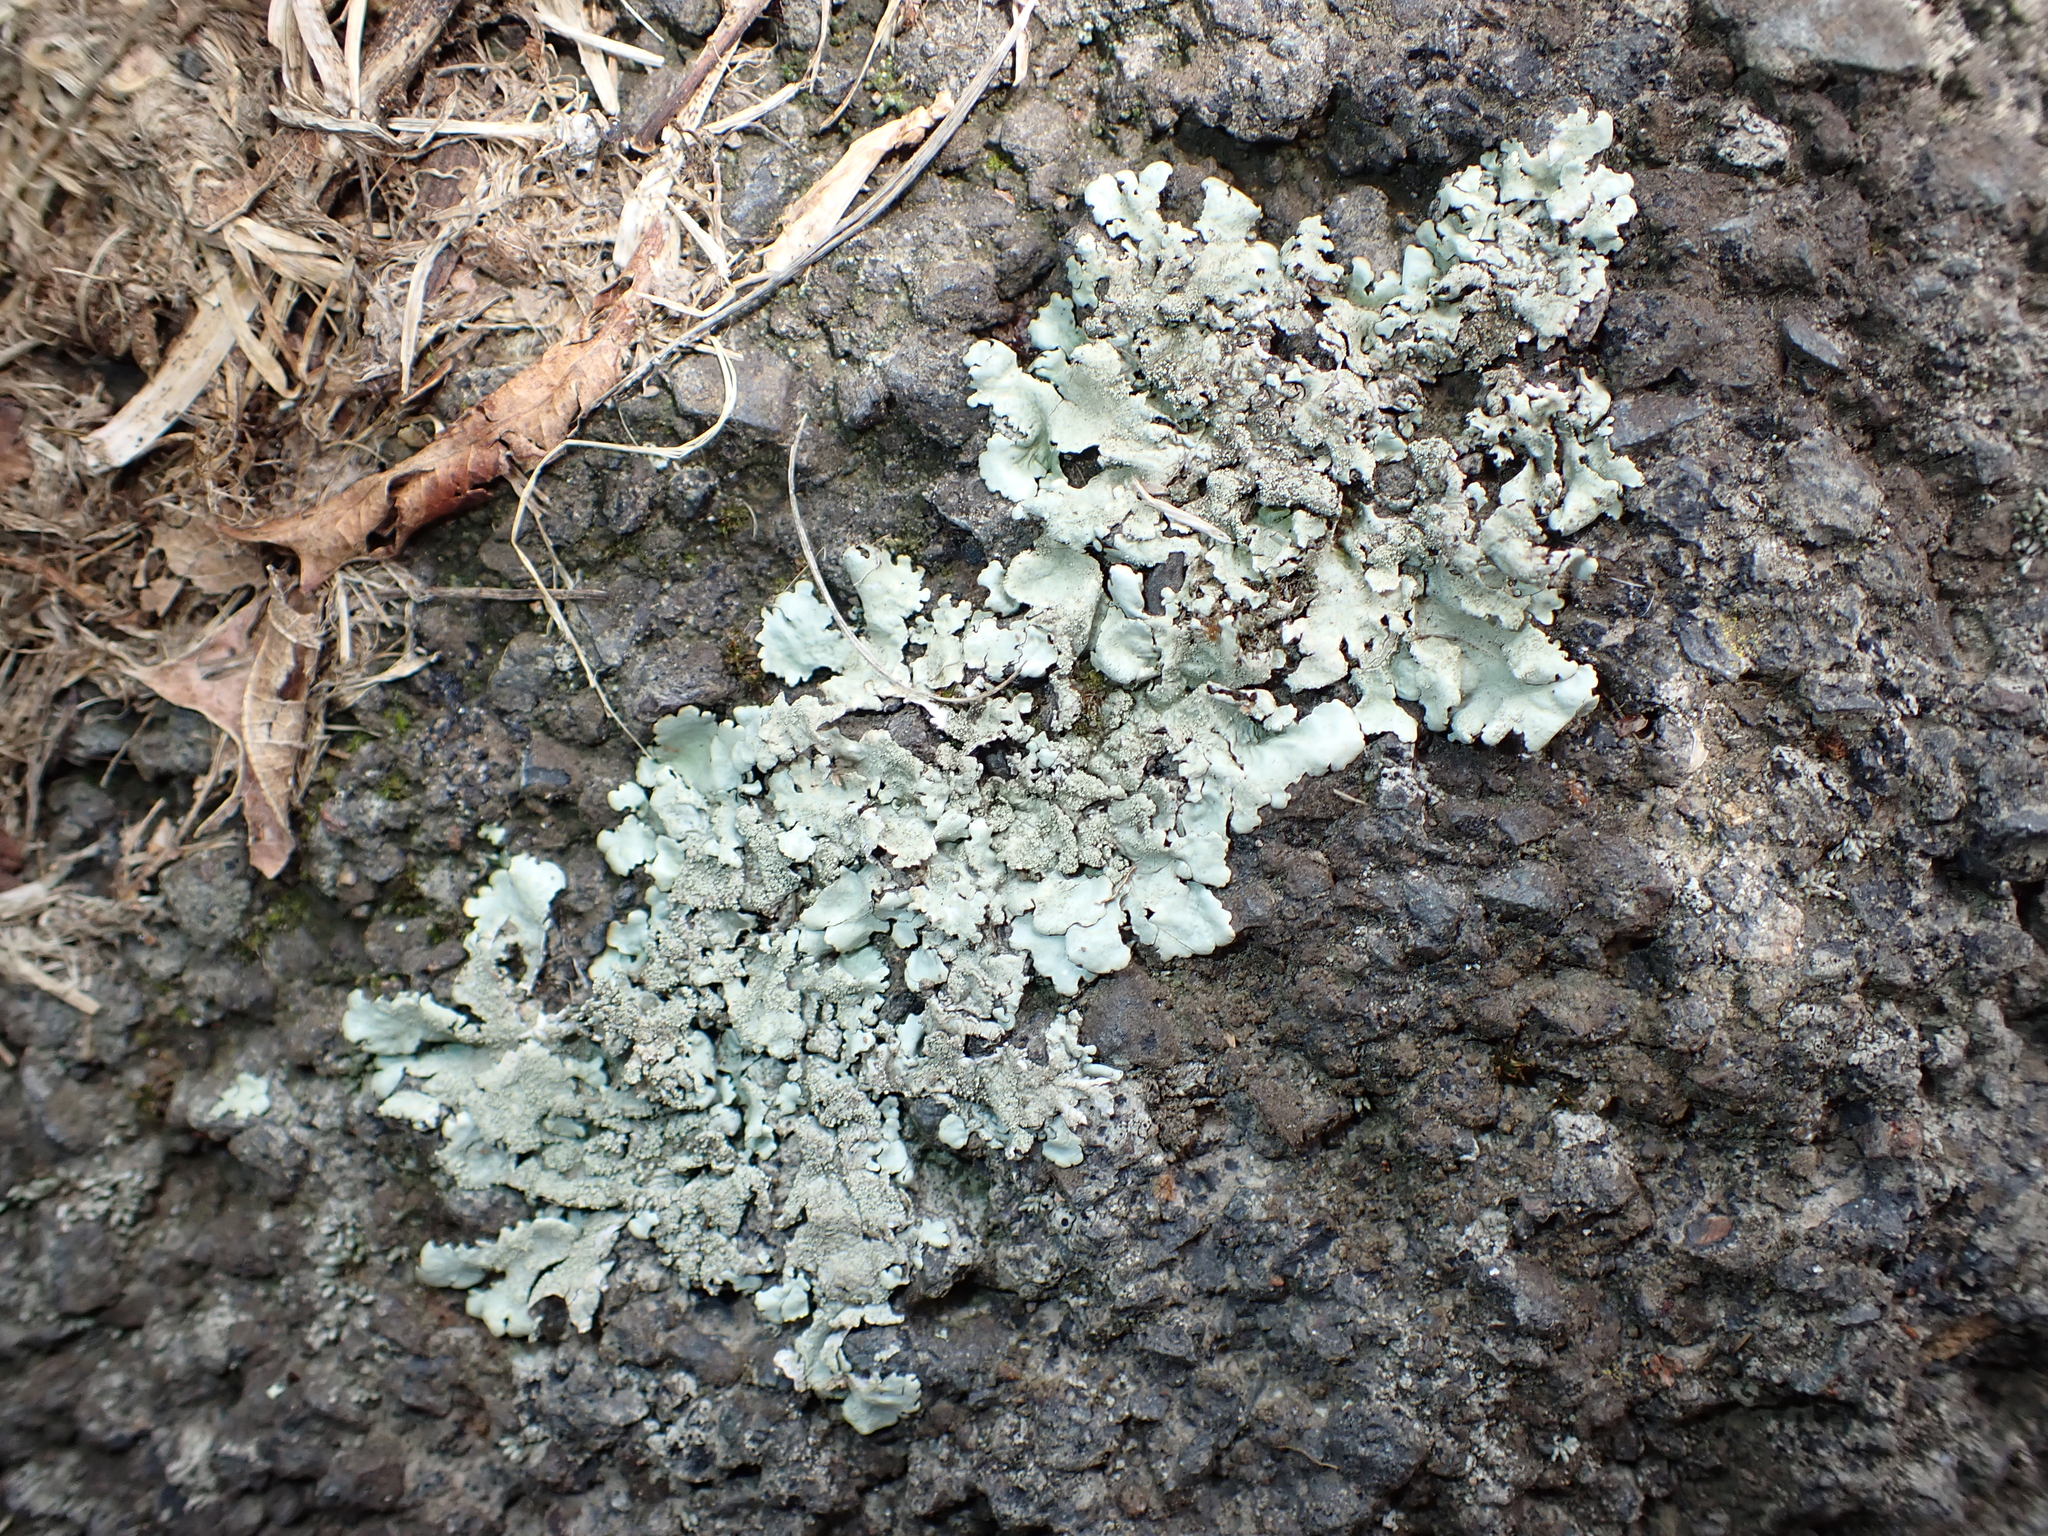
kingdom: Fungi
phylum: Ascomycota
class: Lecanoromycetes
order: Lecanorales
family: Parmeliaceae
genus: Xanthoparmelia
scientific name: Xanthoparmelia scabrosa
